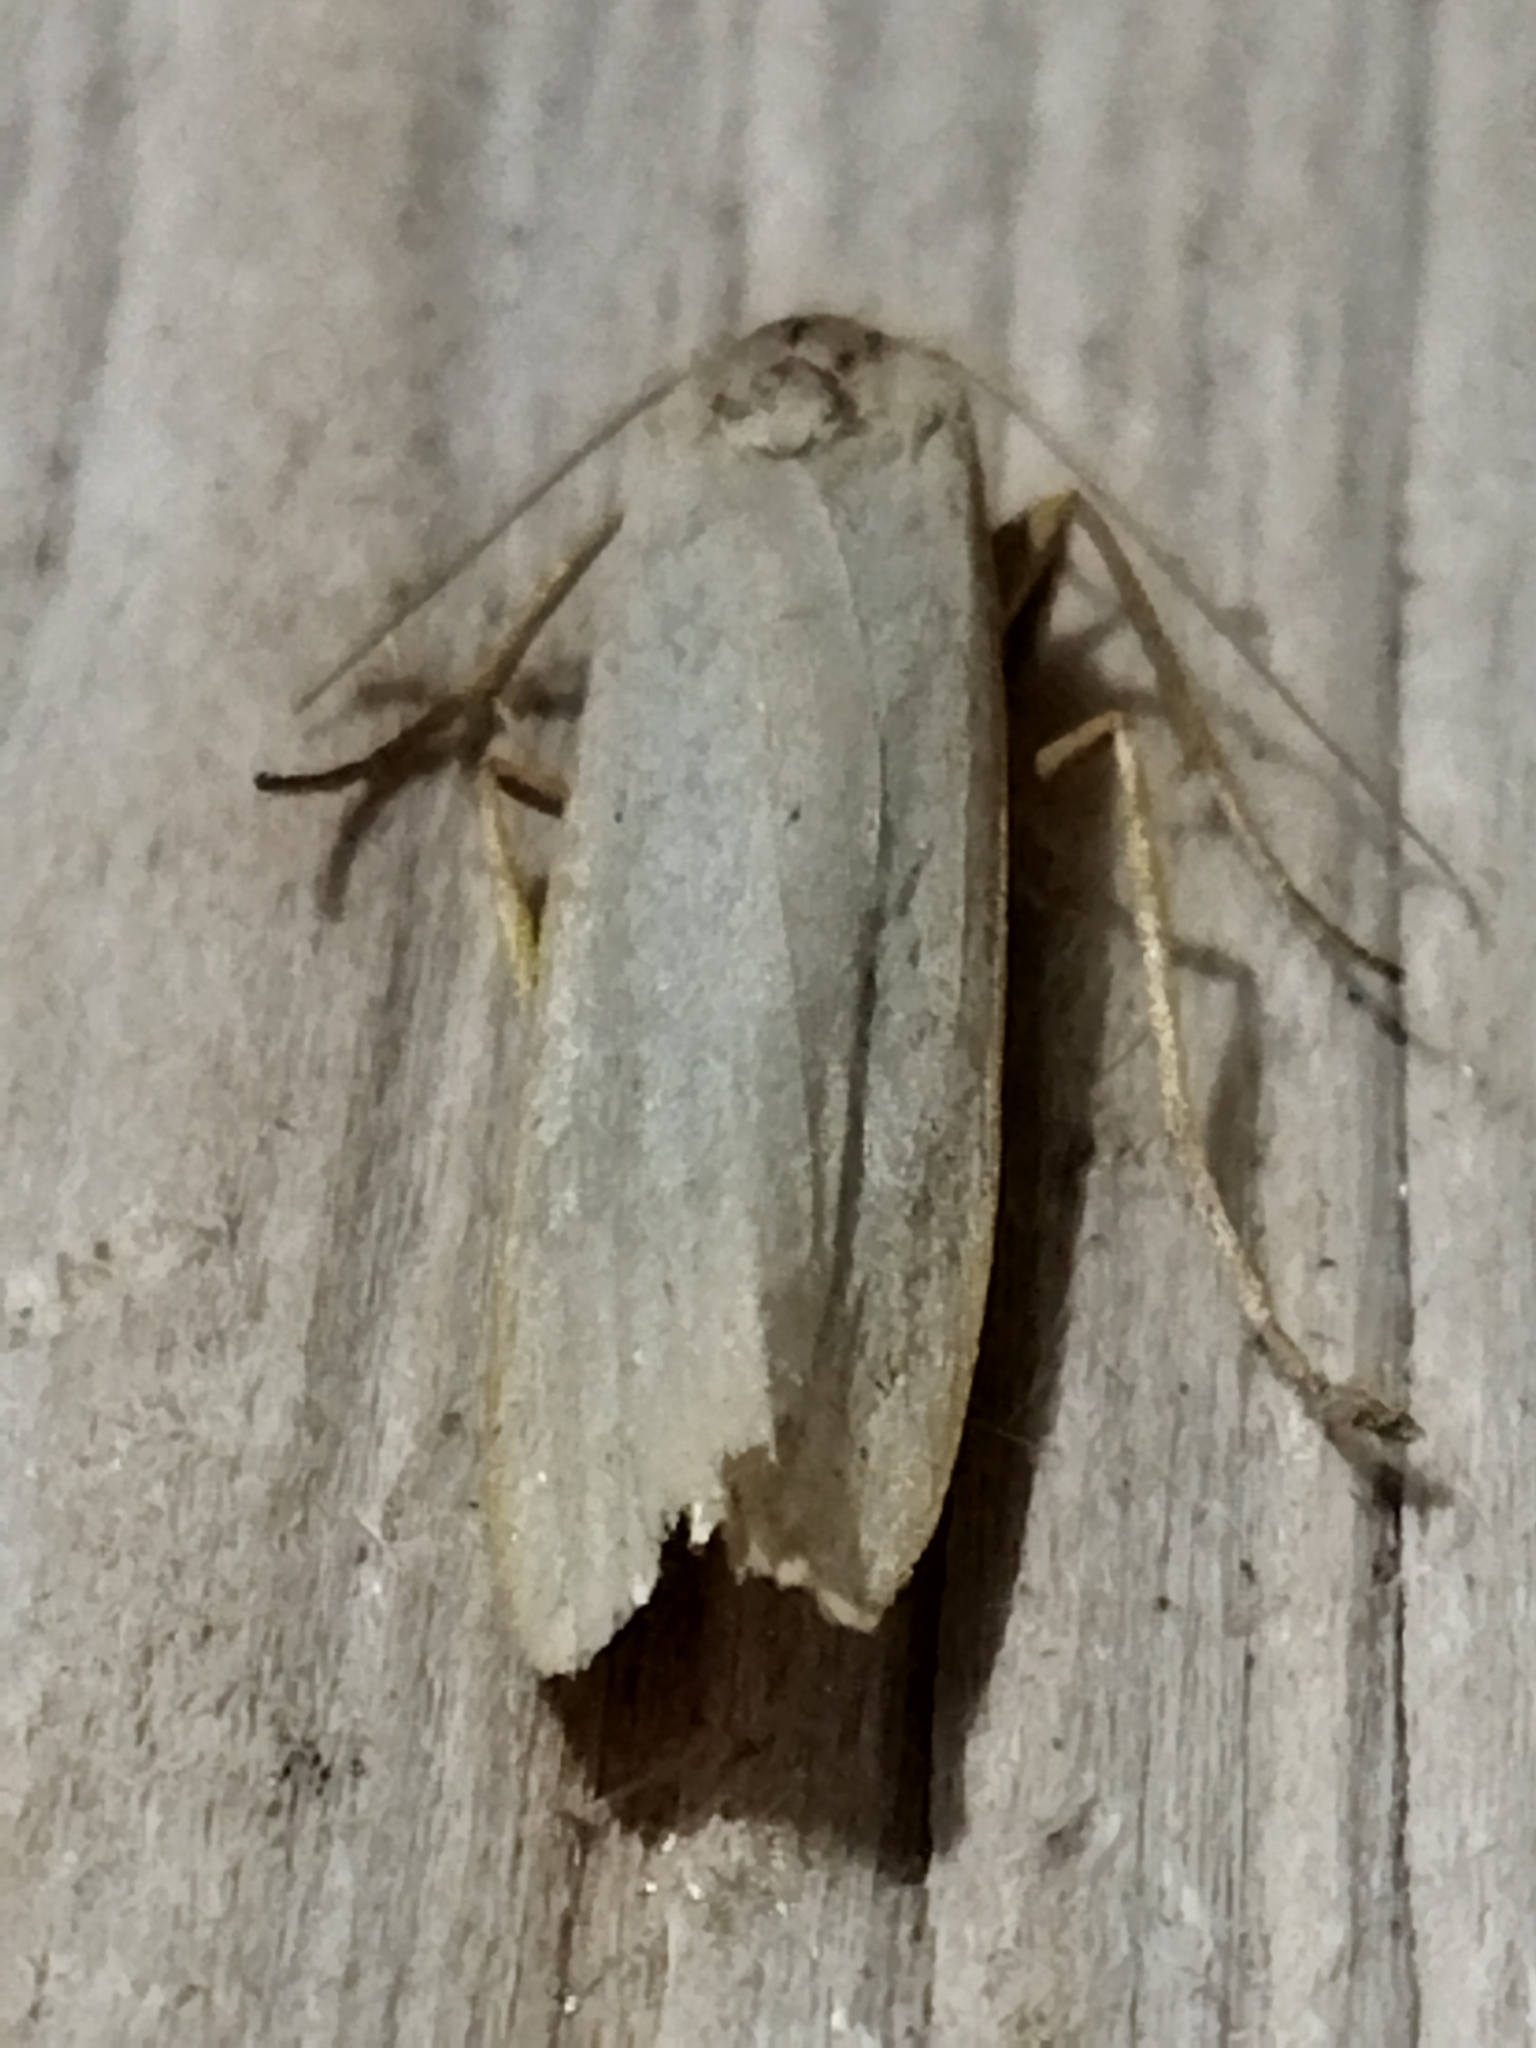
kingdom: Animalia
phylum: Arthropoda
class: Insecta
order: Lepidoptera
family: Erebidae
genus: Eilema
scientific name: Eilema caniola
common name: Hoary footman
